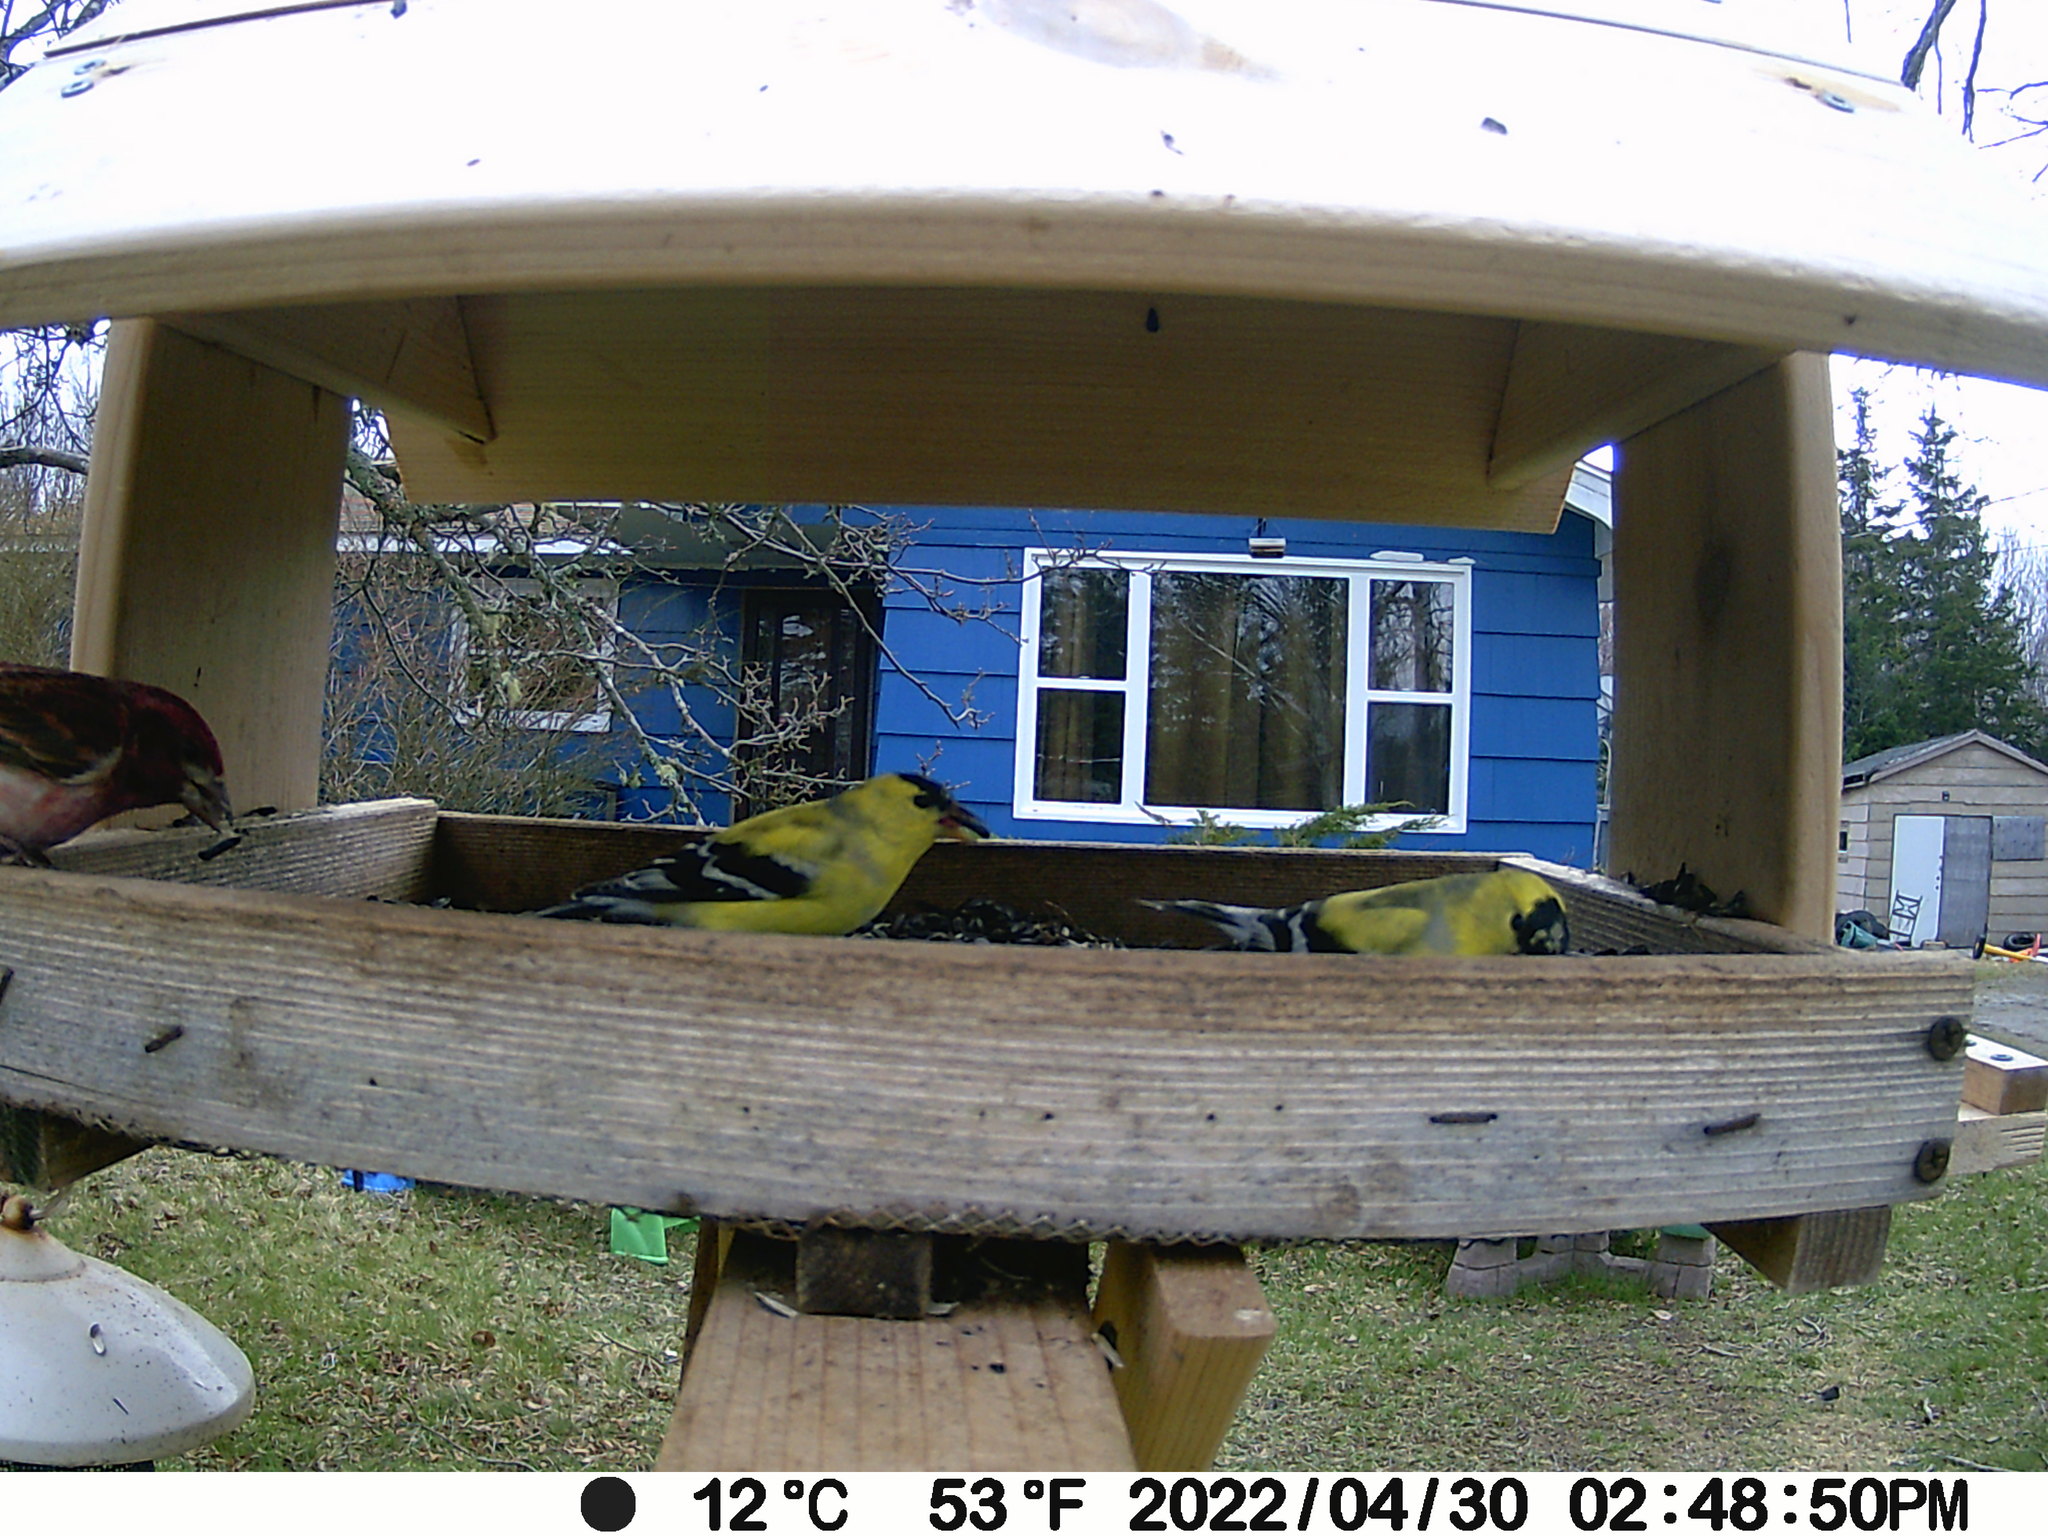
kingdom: Animalia
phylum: Chordata
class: Aves
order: Passeriformes
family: Fringillidae
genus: Spinus
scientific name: Spinus tristis
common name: American goldfinch
